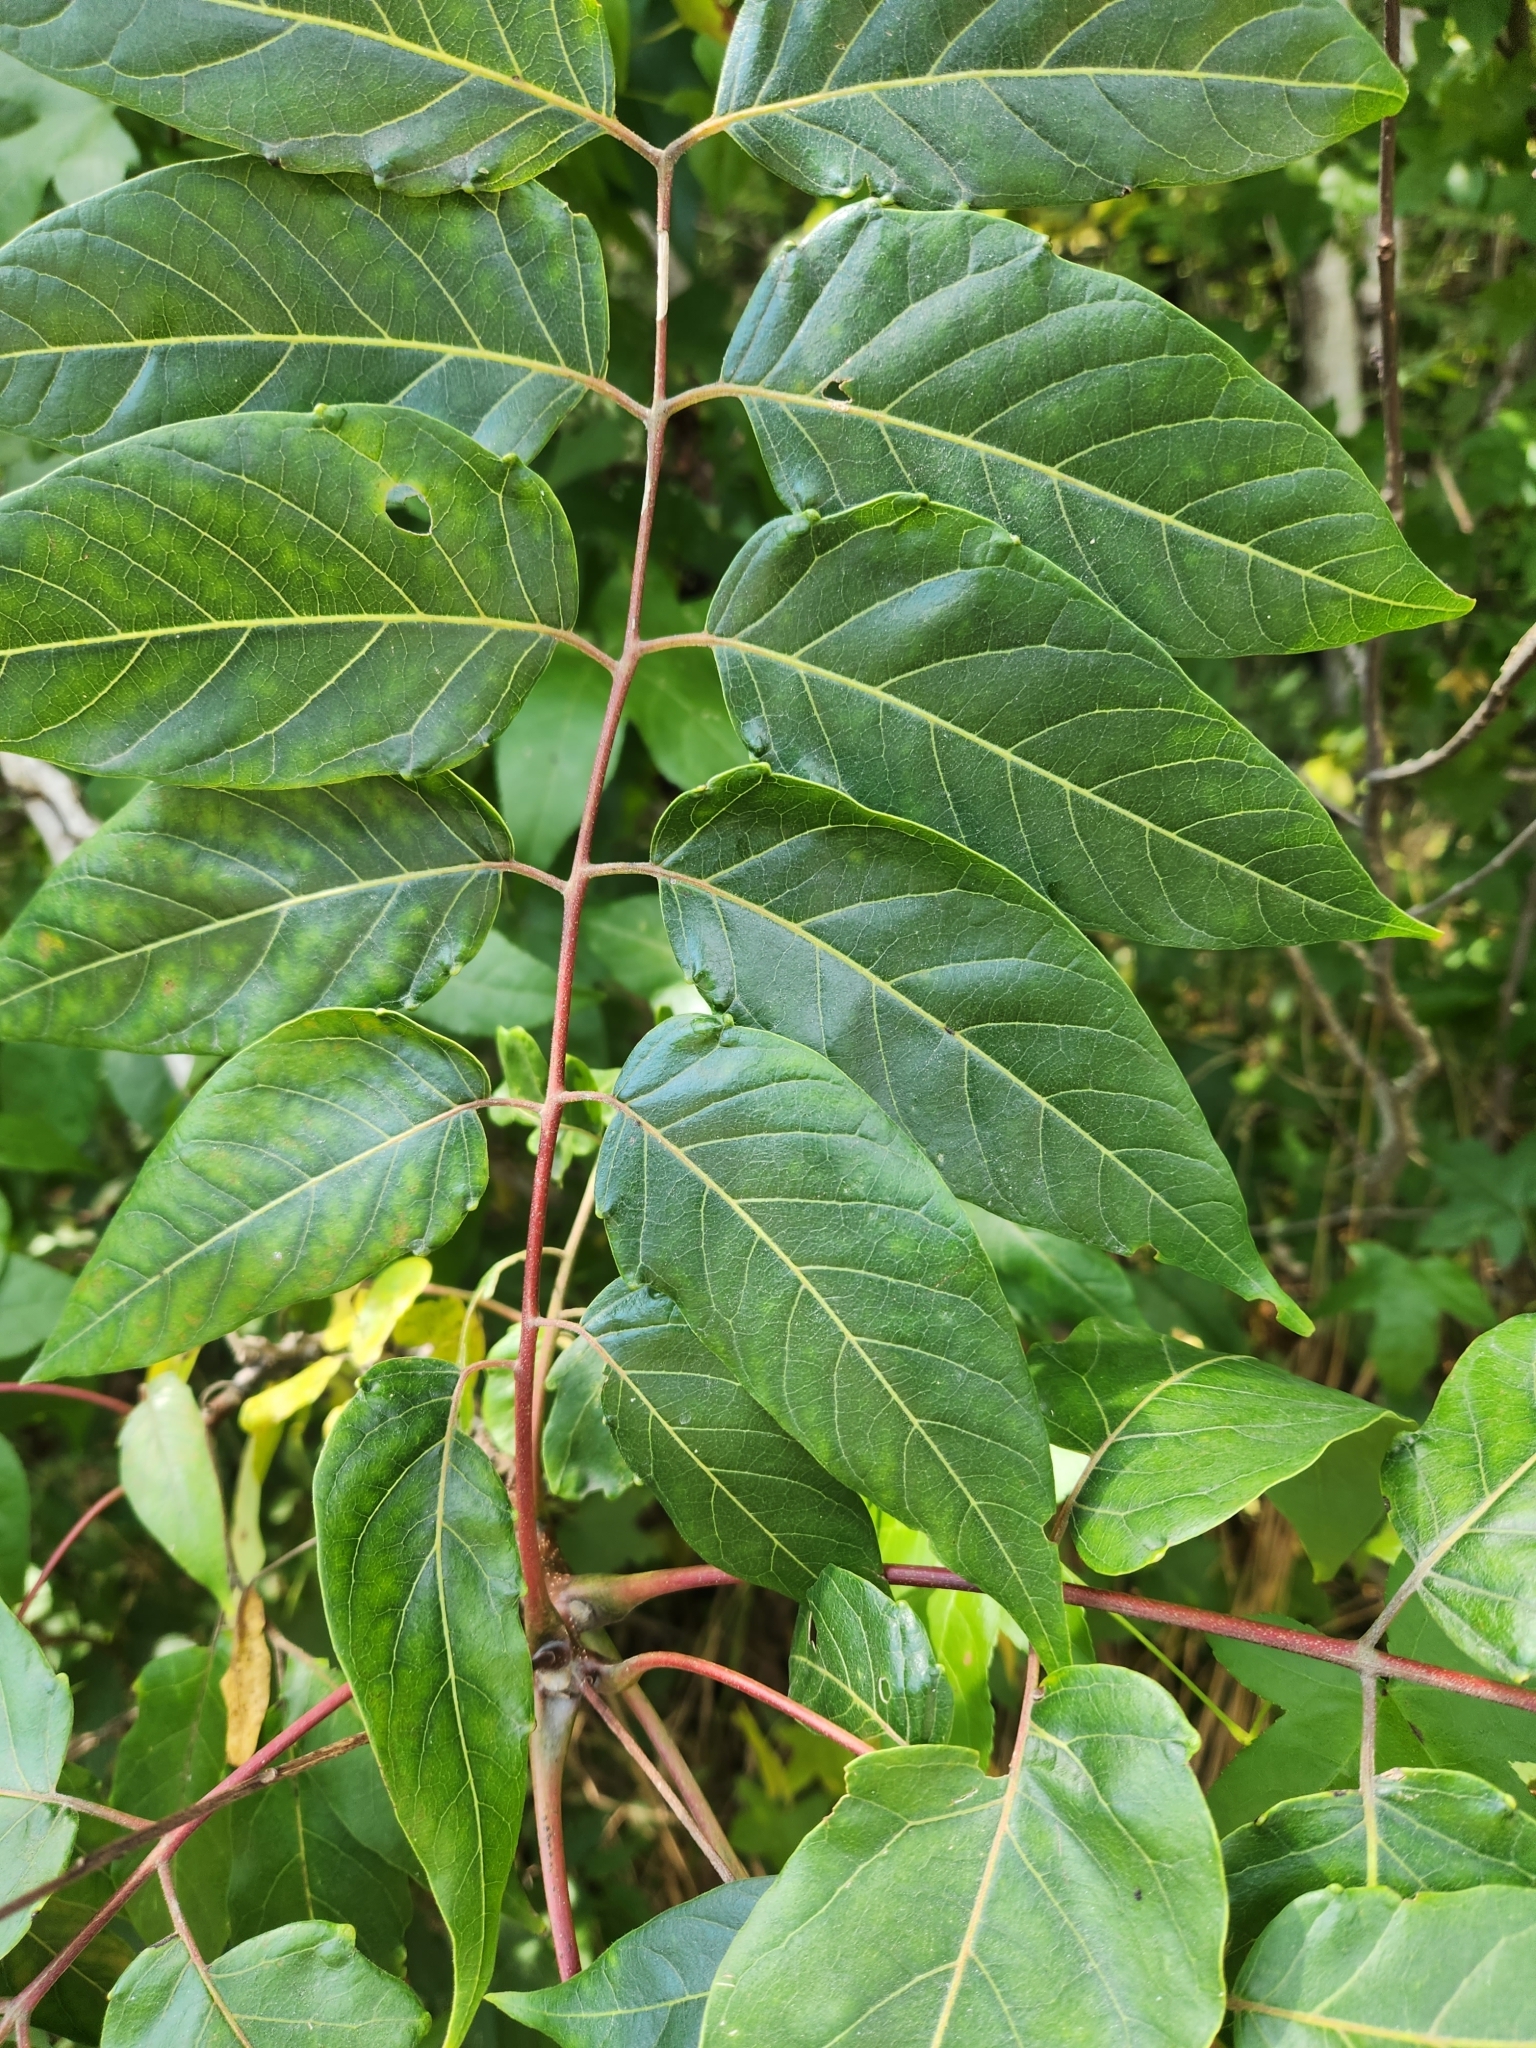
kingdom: Plantae
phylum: Tracheophyta
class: Magnoliopsida
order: Sapindales
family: Simaroubaceae
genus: Ailanthus
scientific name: Ailanthus altissima
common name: Tree-of-heaven
